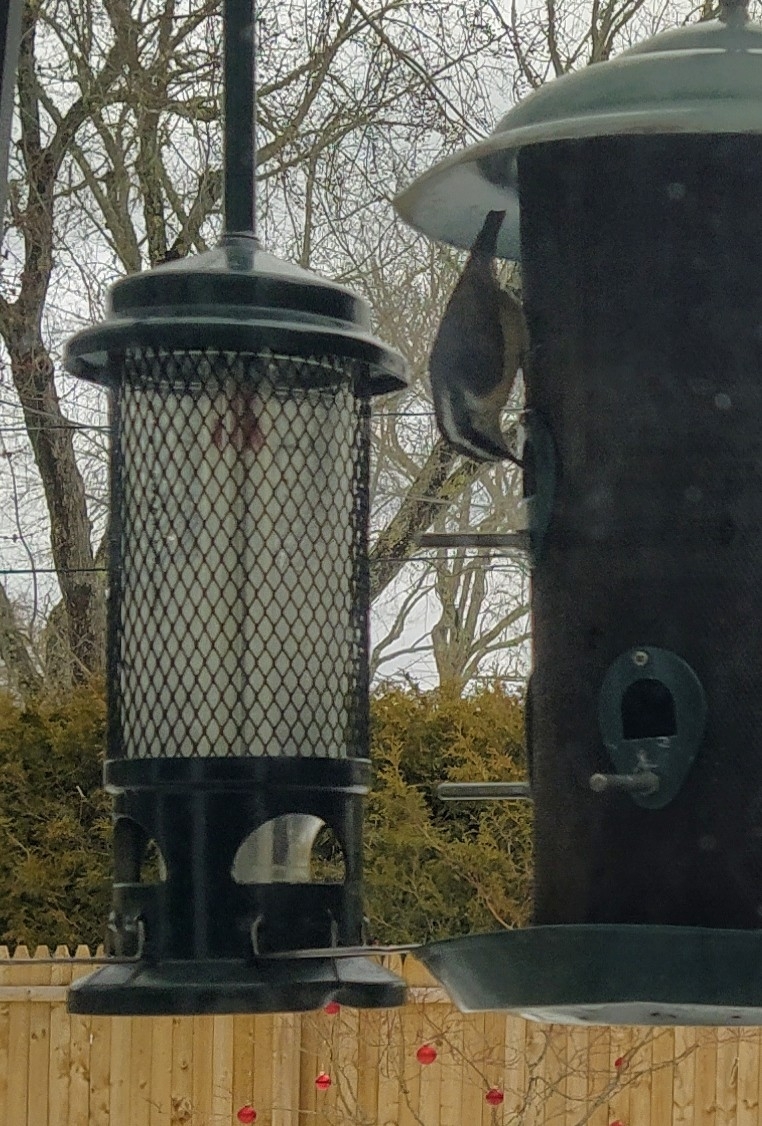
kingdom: Animalia
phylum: Chordata
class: Aves
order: Passeriformes
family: Sittidae
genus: Sitta
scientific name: Sitta canadensis
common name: Red-breasted nuthatch
